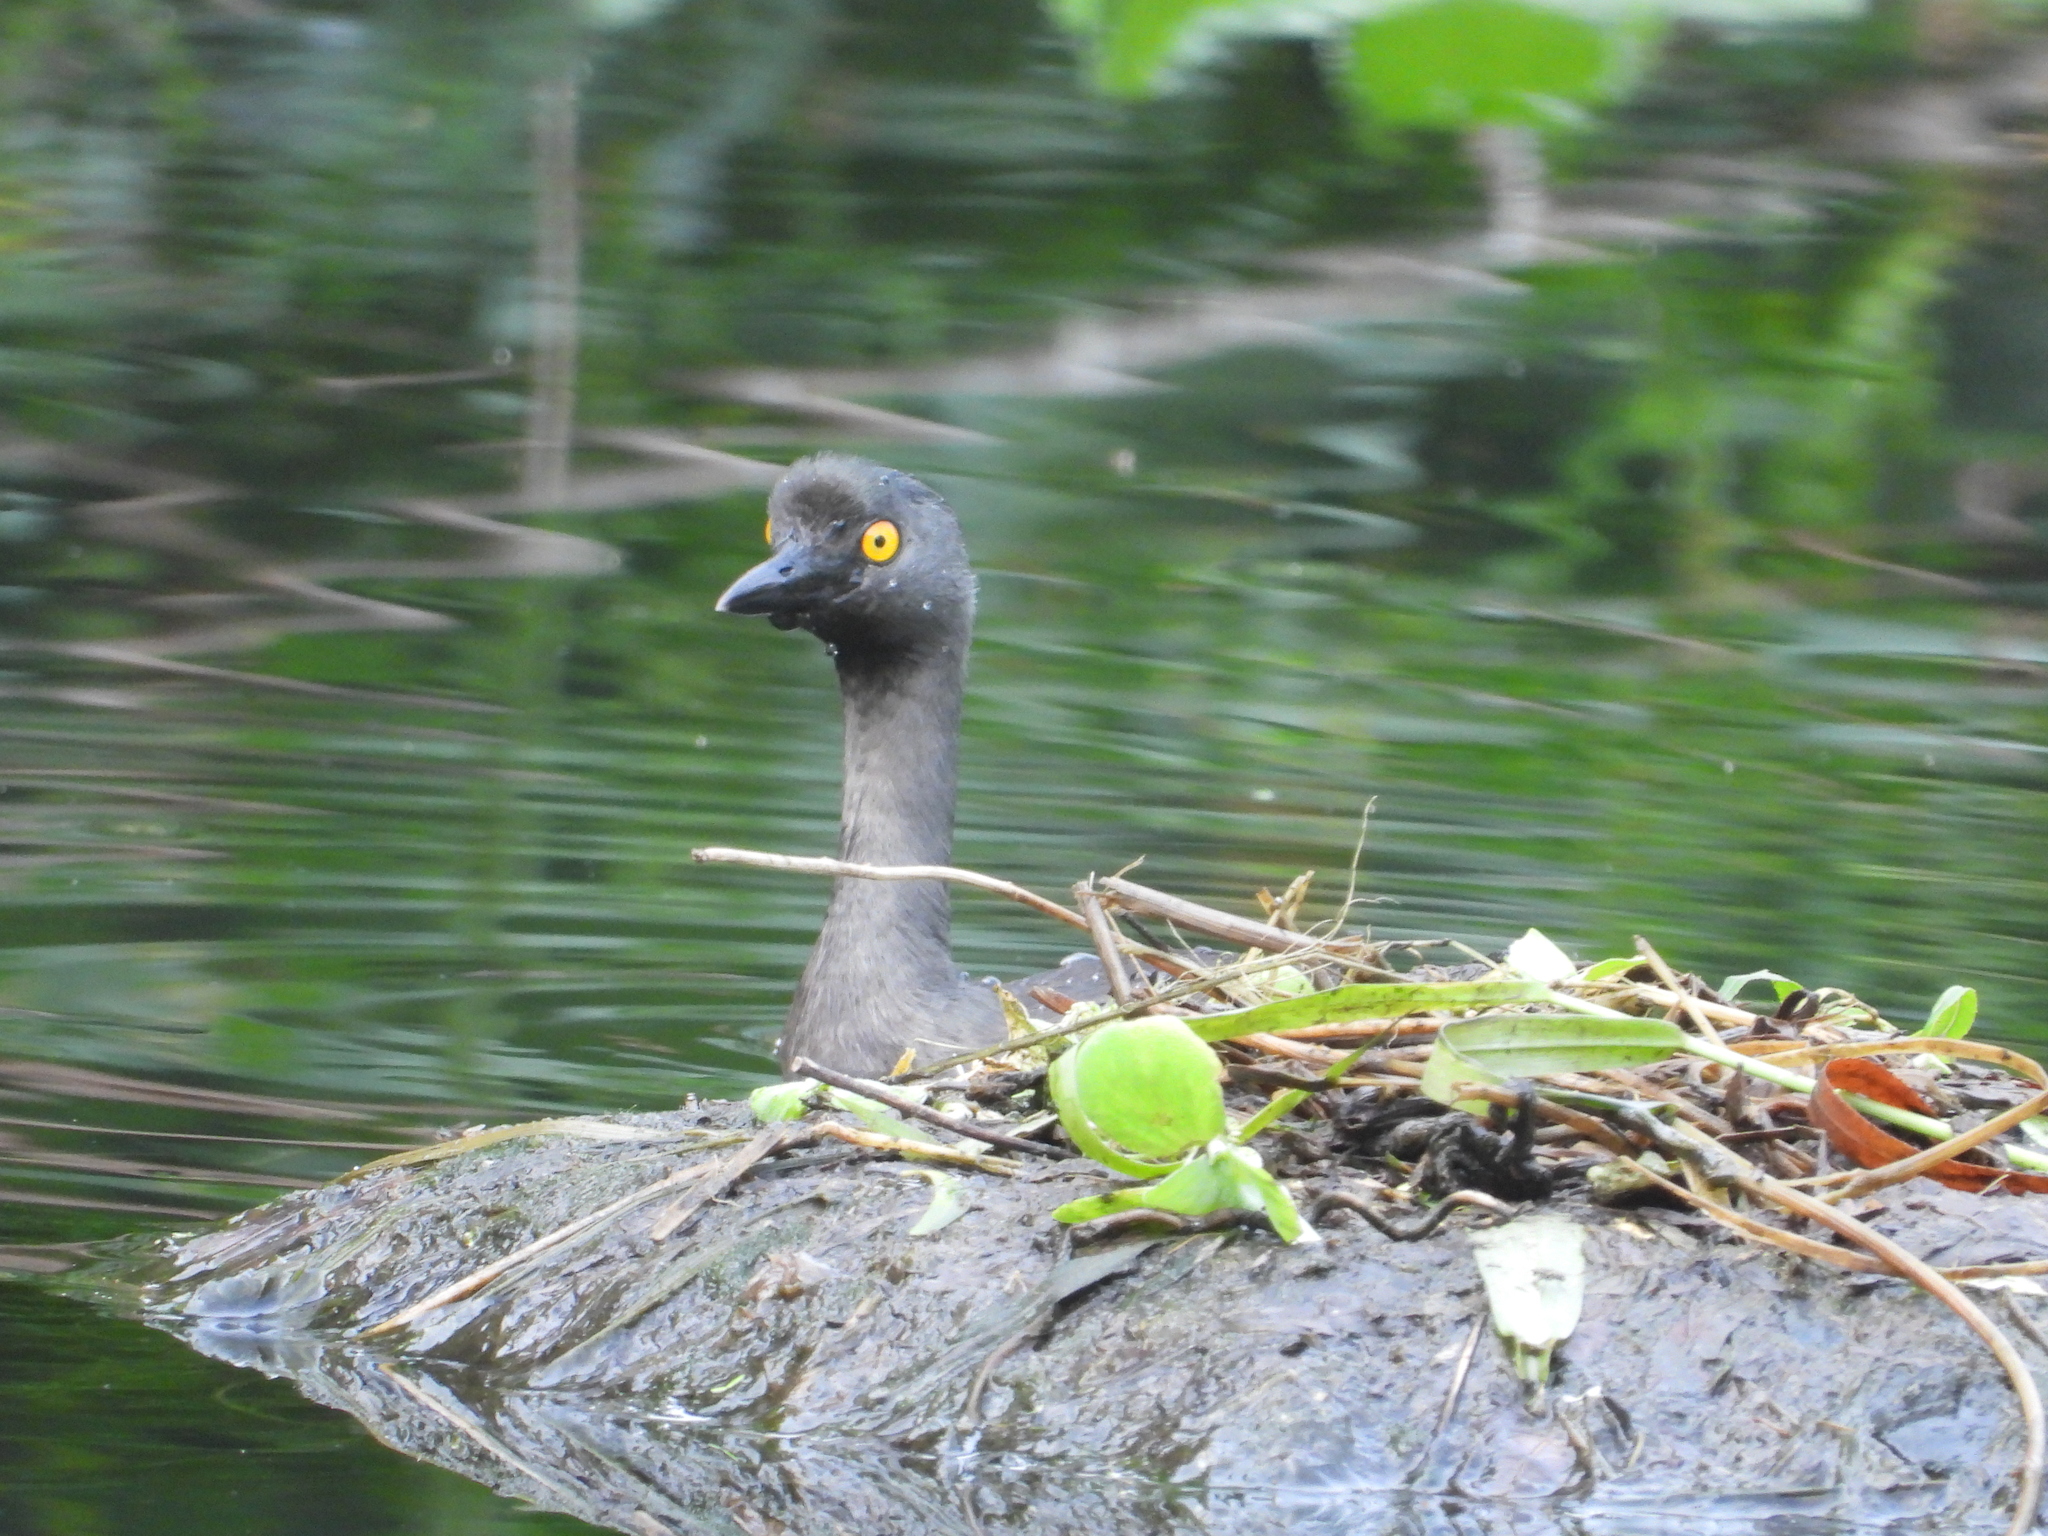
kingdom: Animalia
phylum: Chordata
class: Aves
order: Podicipediformes
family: Podicipedidae
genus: Tachybaptus
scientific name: Tachybaptus dominicus
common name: Least grebe
